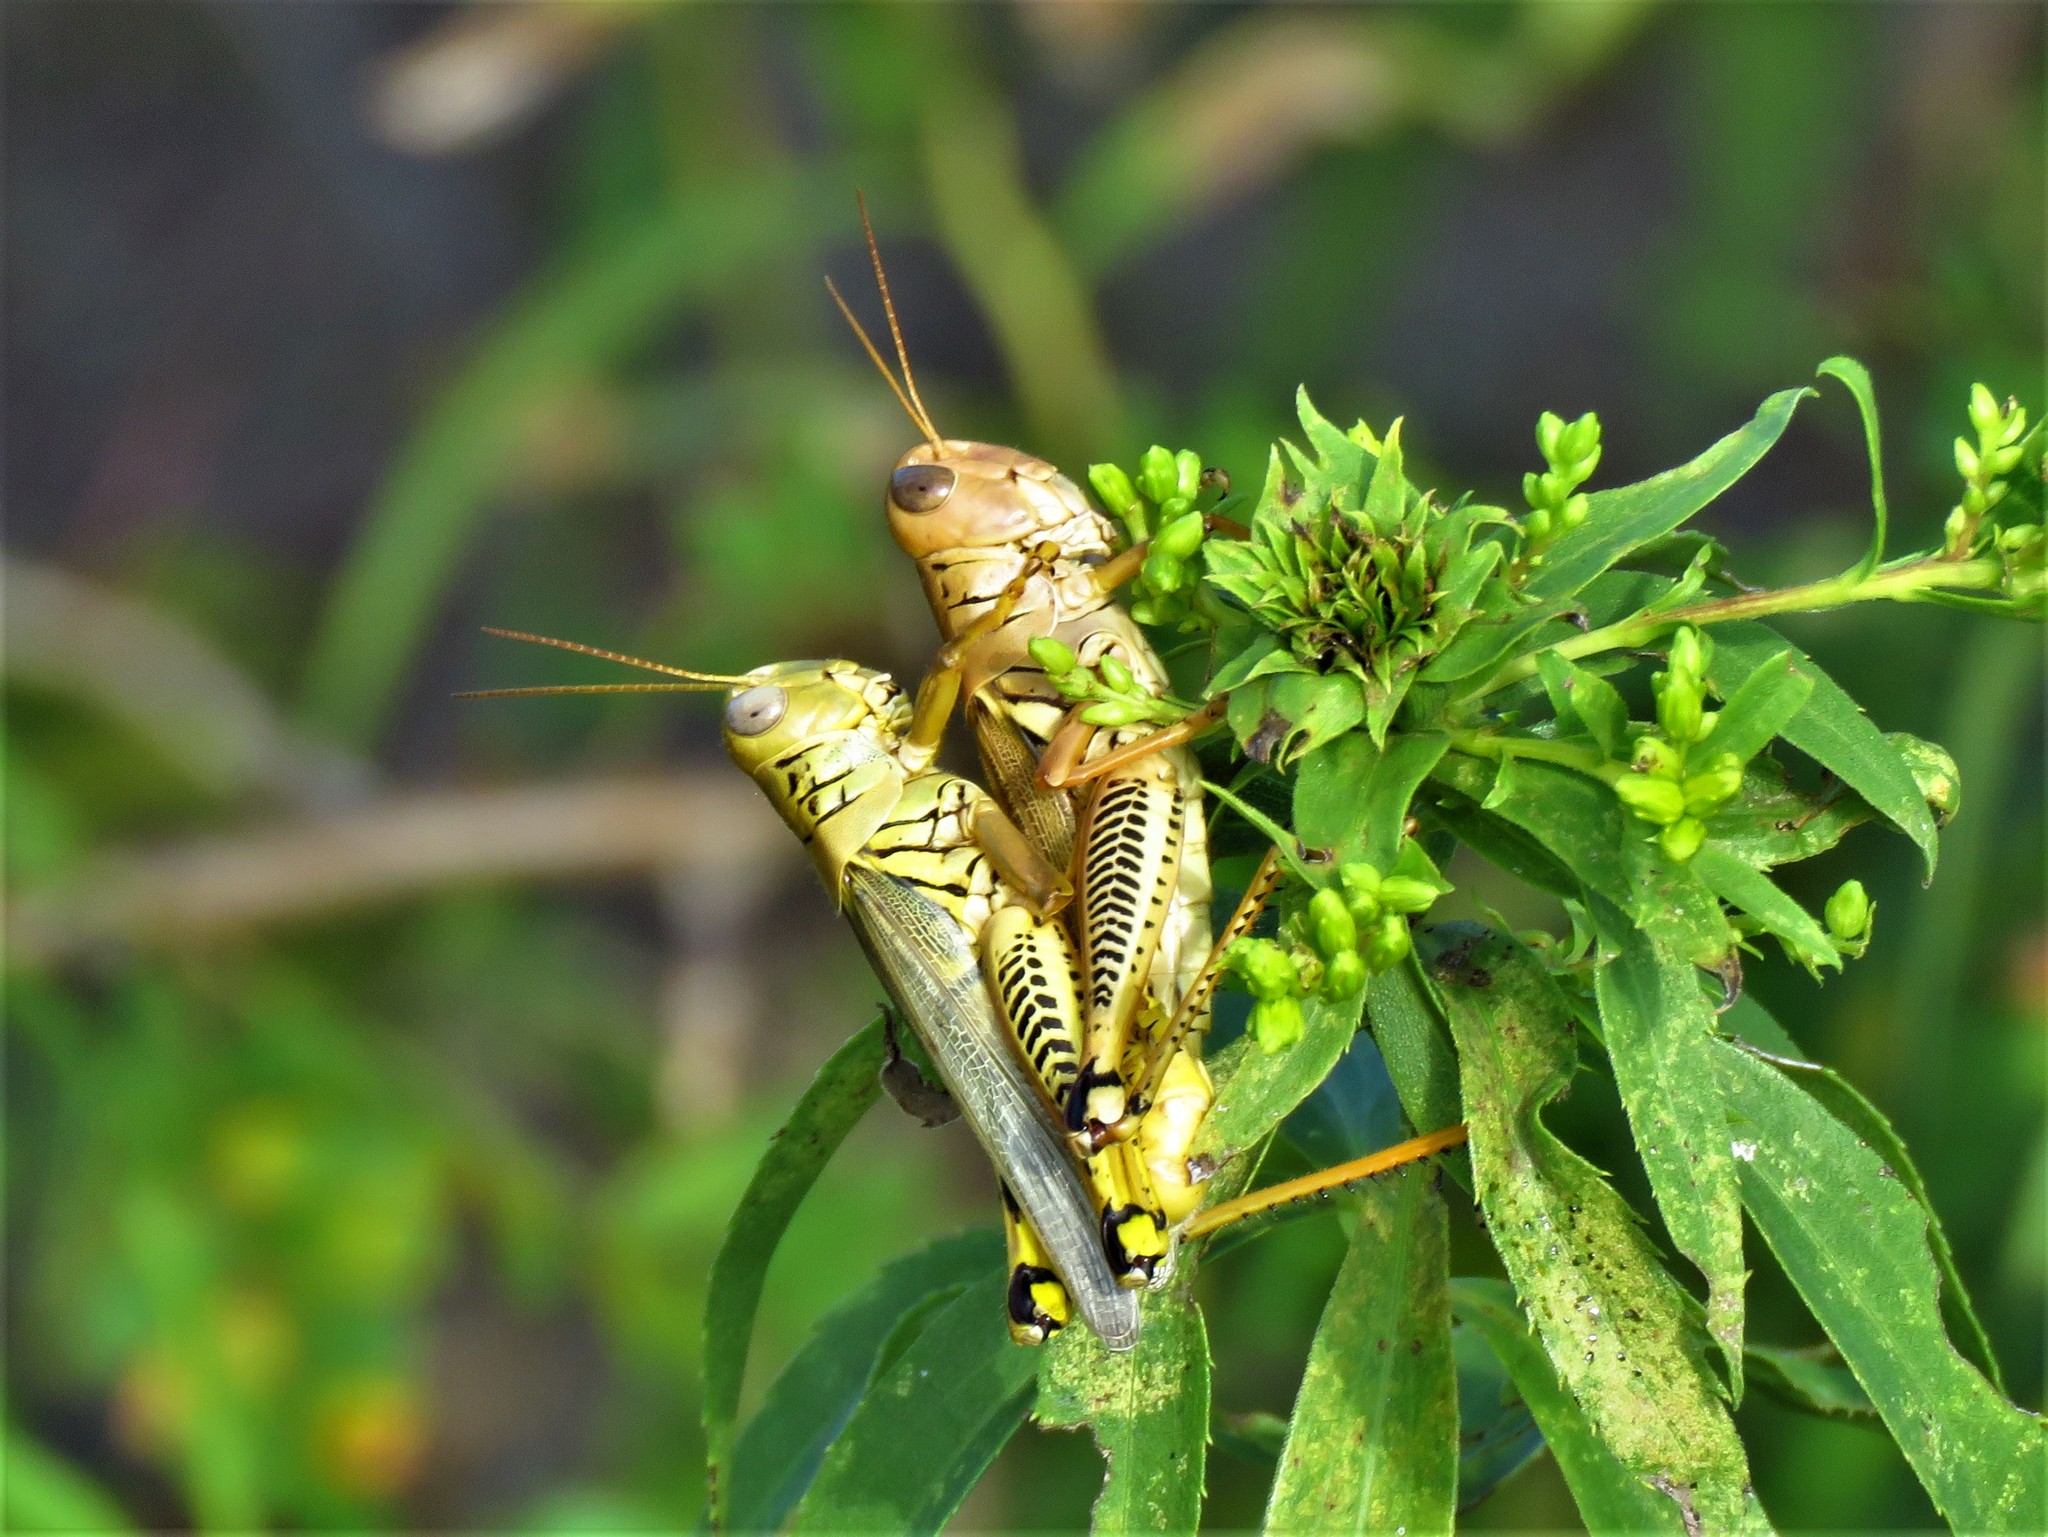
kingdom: Animalia
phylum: Arthropoda
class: Insecta
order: Orthoptera
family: Acrididae
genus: Melanoplus
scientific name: Melanoplus differentialis
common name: Differential grasshopper
